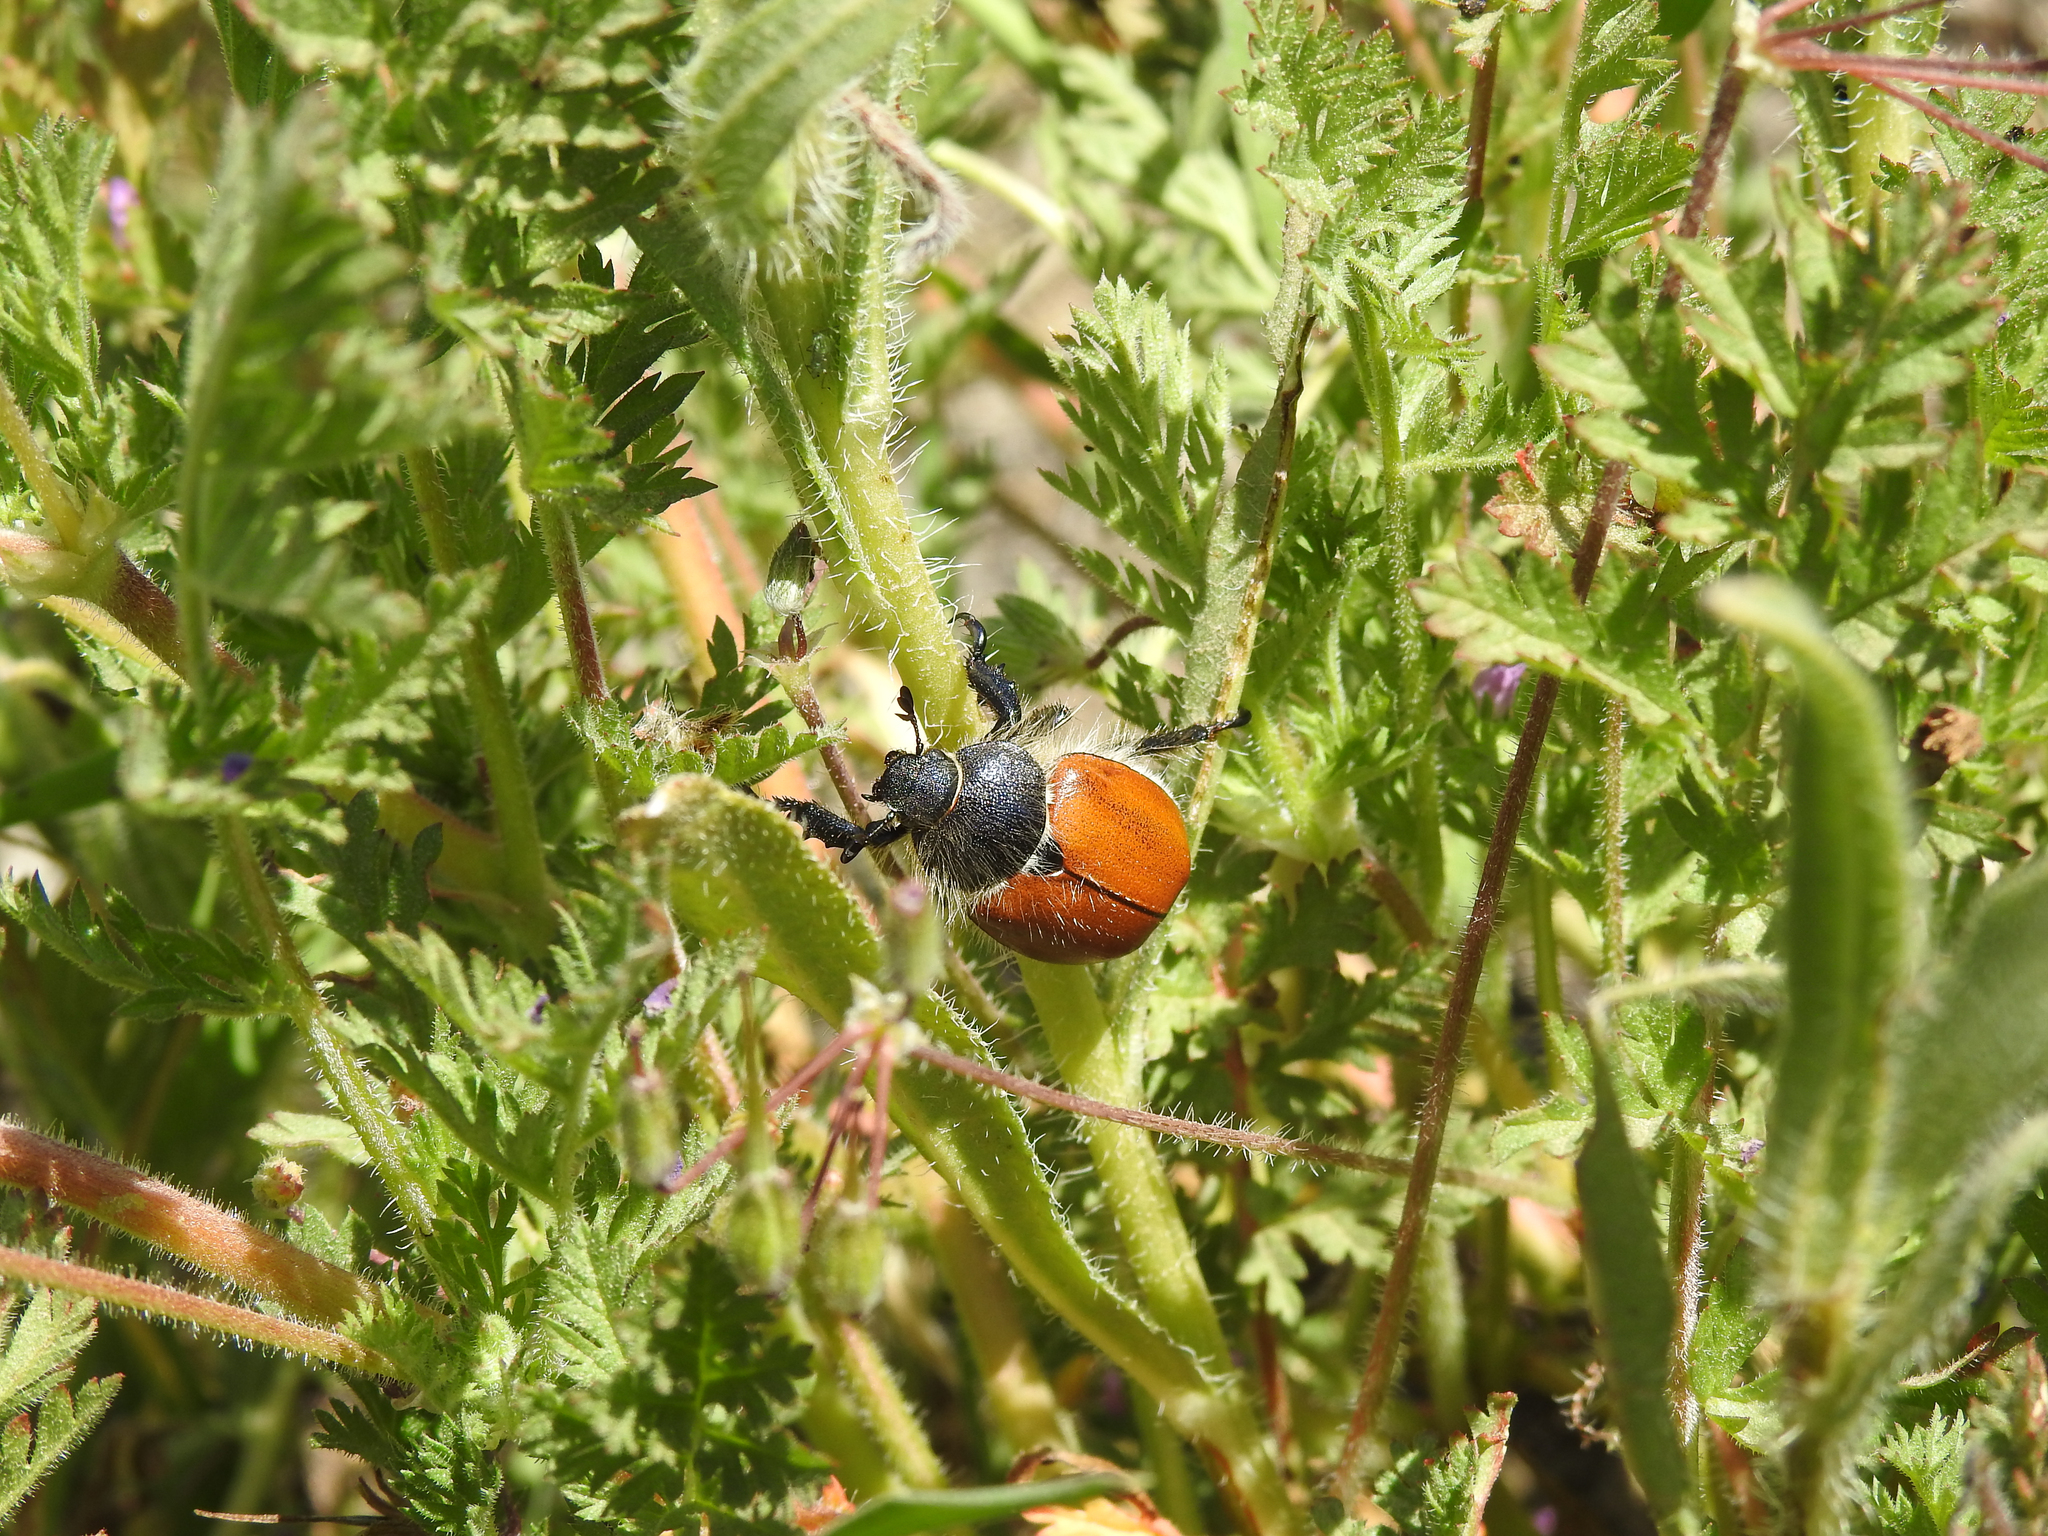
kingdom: Animalia
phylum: Arthropoda
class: Insecta
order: Coleoptera
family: Scarabaeidae
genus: Paracotalpa
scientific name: Paracotalpa ursina
